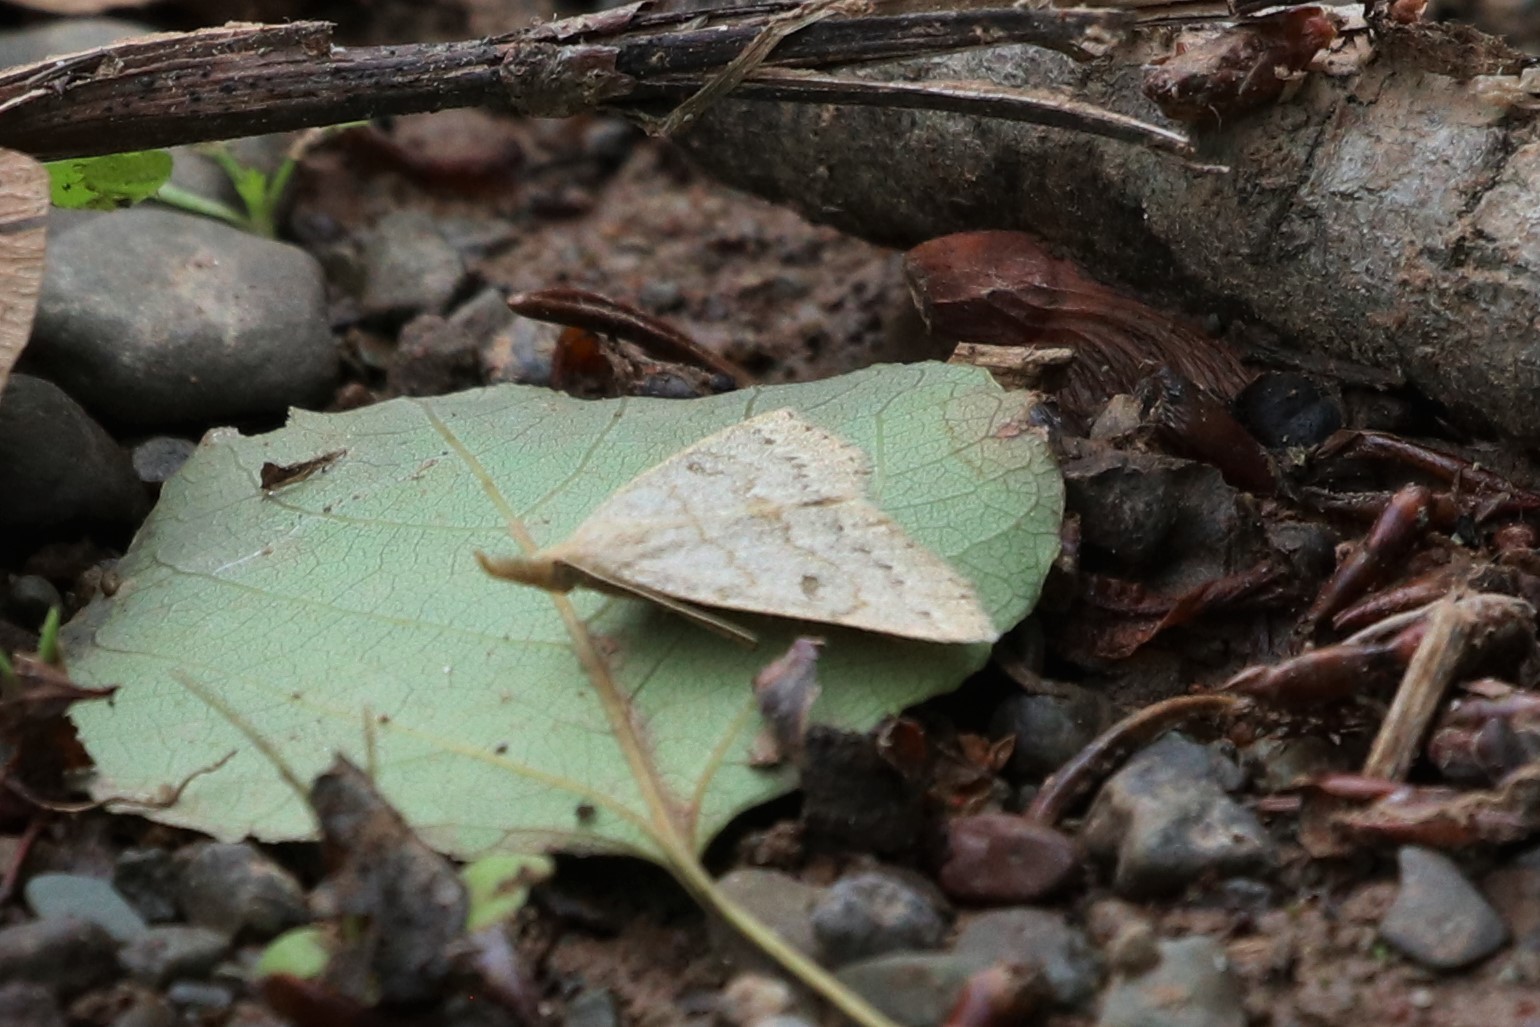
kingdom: Animalia
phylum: Arthropoda
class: Insecta
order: Lepidoptera
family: Erebidae
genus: Macrochilo
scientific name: Macrochilo morbidalis
